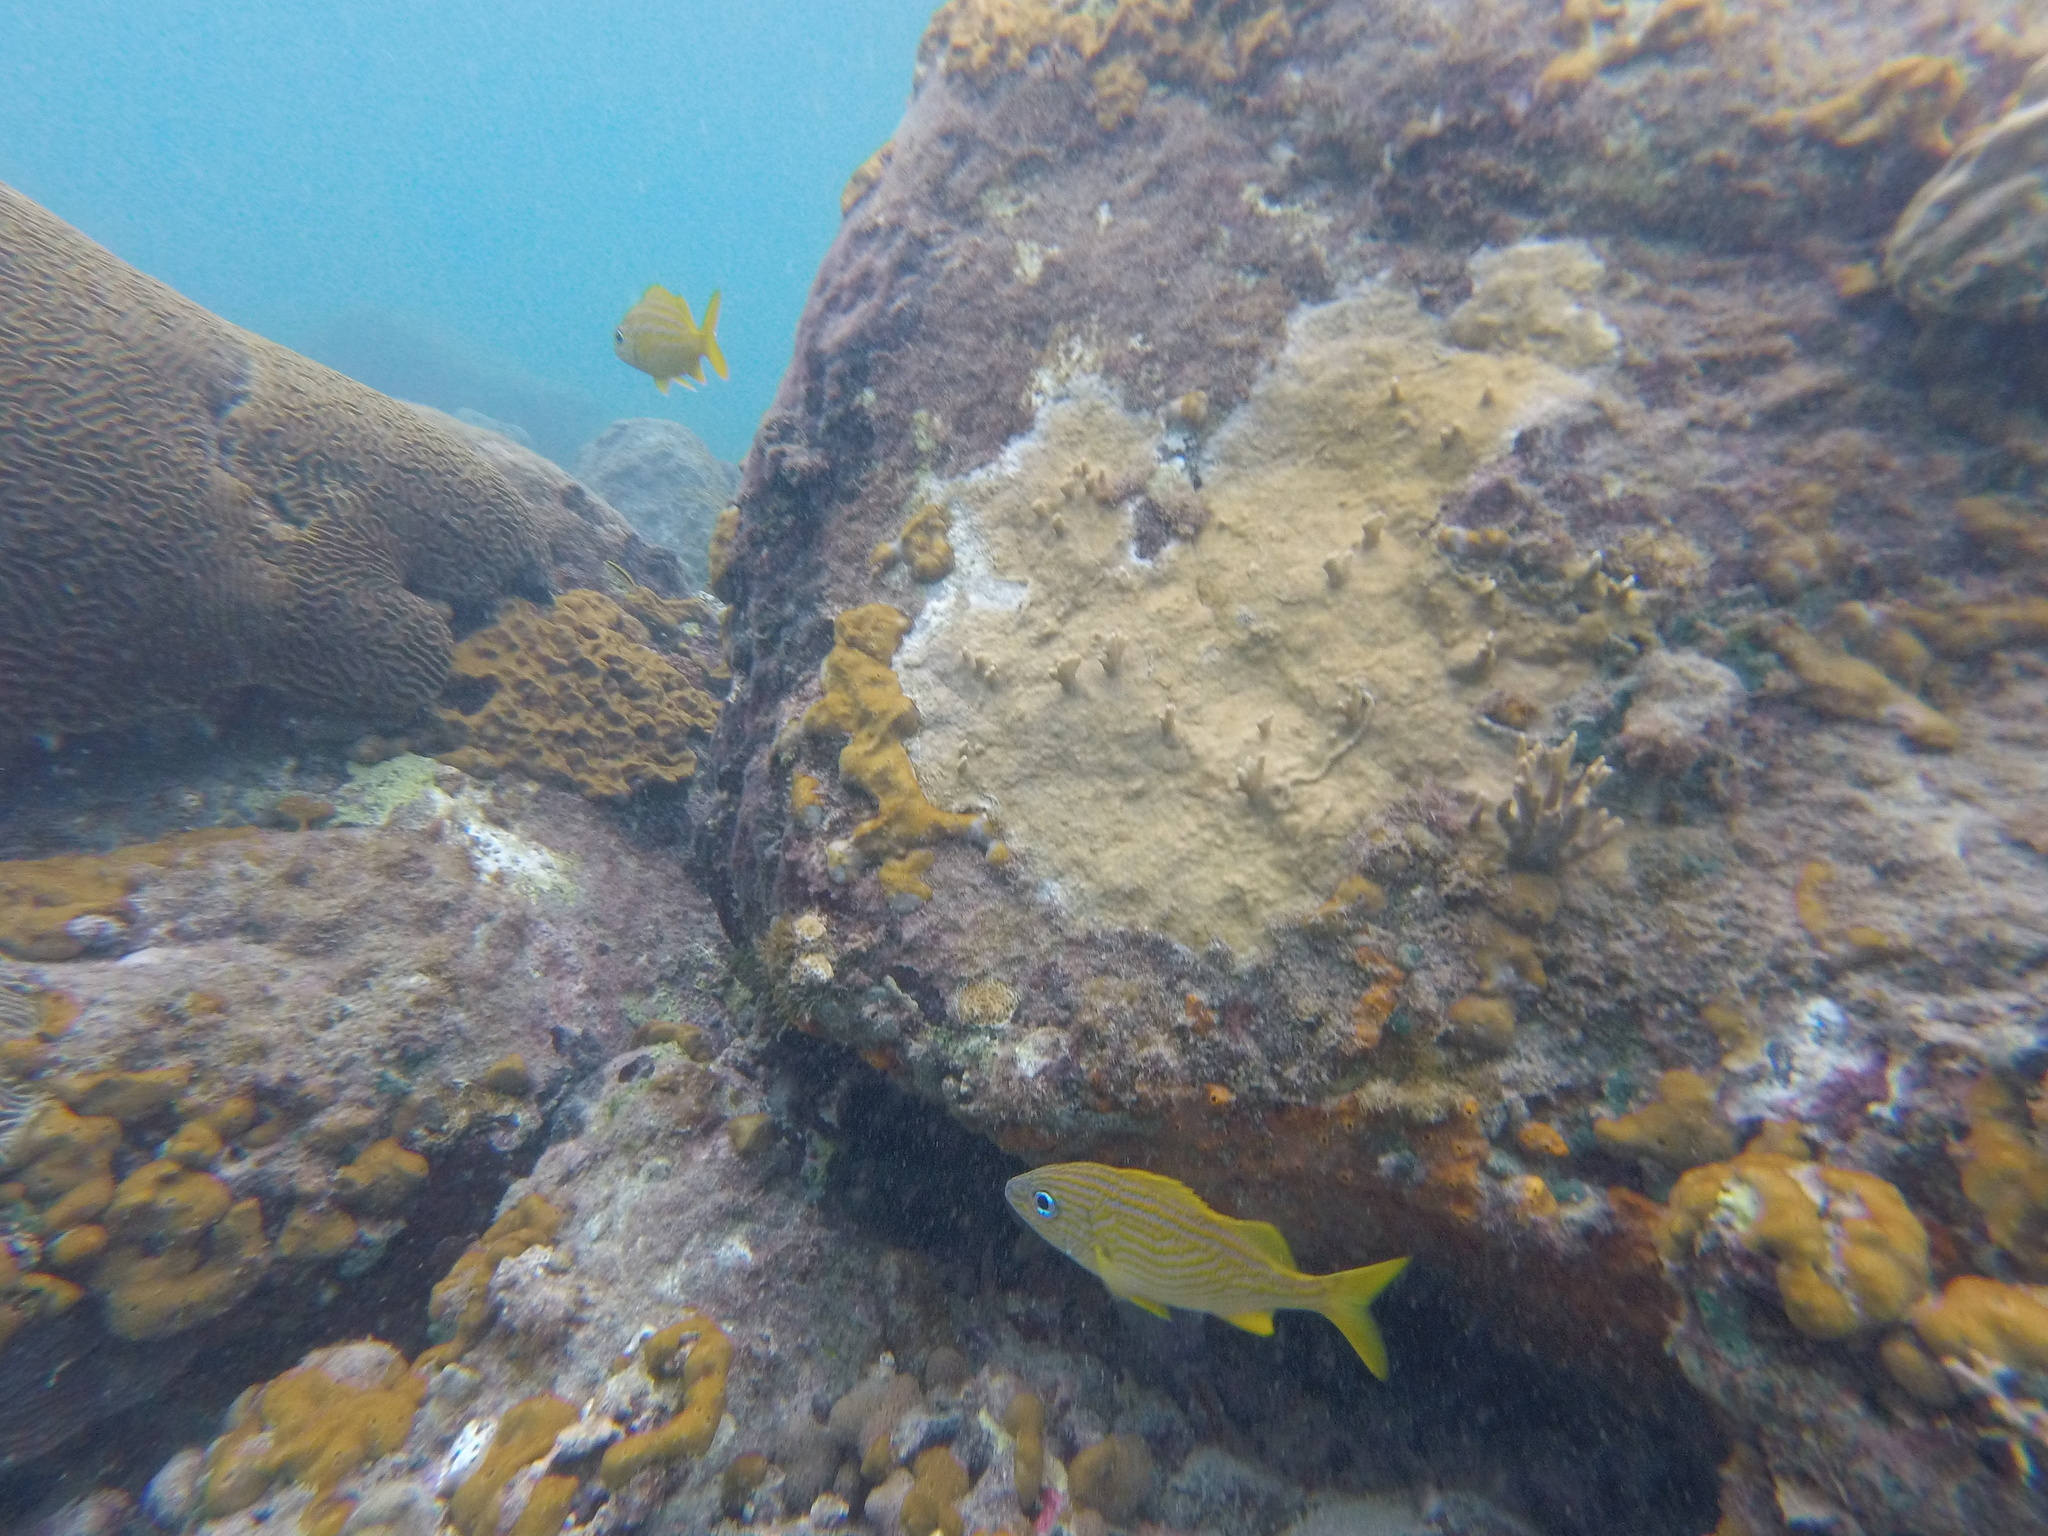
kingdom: Animalia
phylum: Chordata
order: Perciformes
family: Haemulidae
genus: Haemulon
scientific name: Haemulon flavolineatum
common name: French grunt
